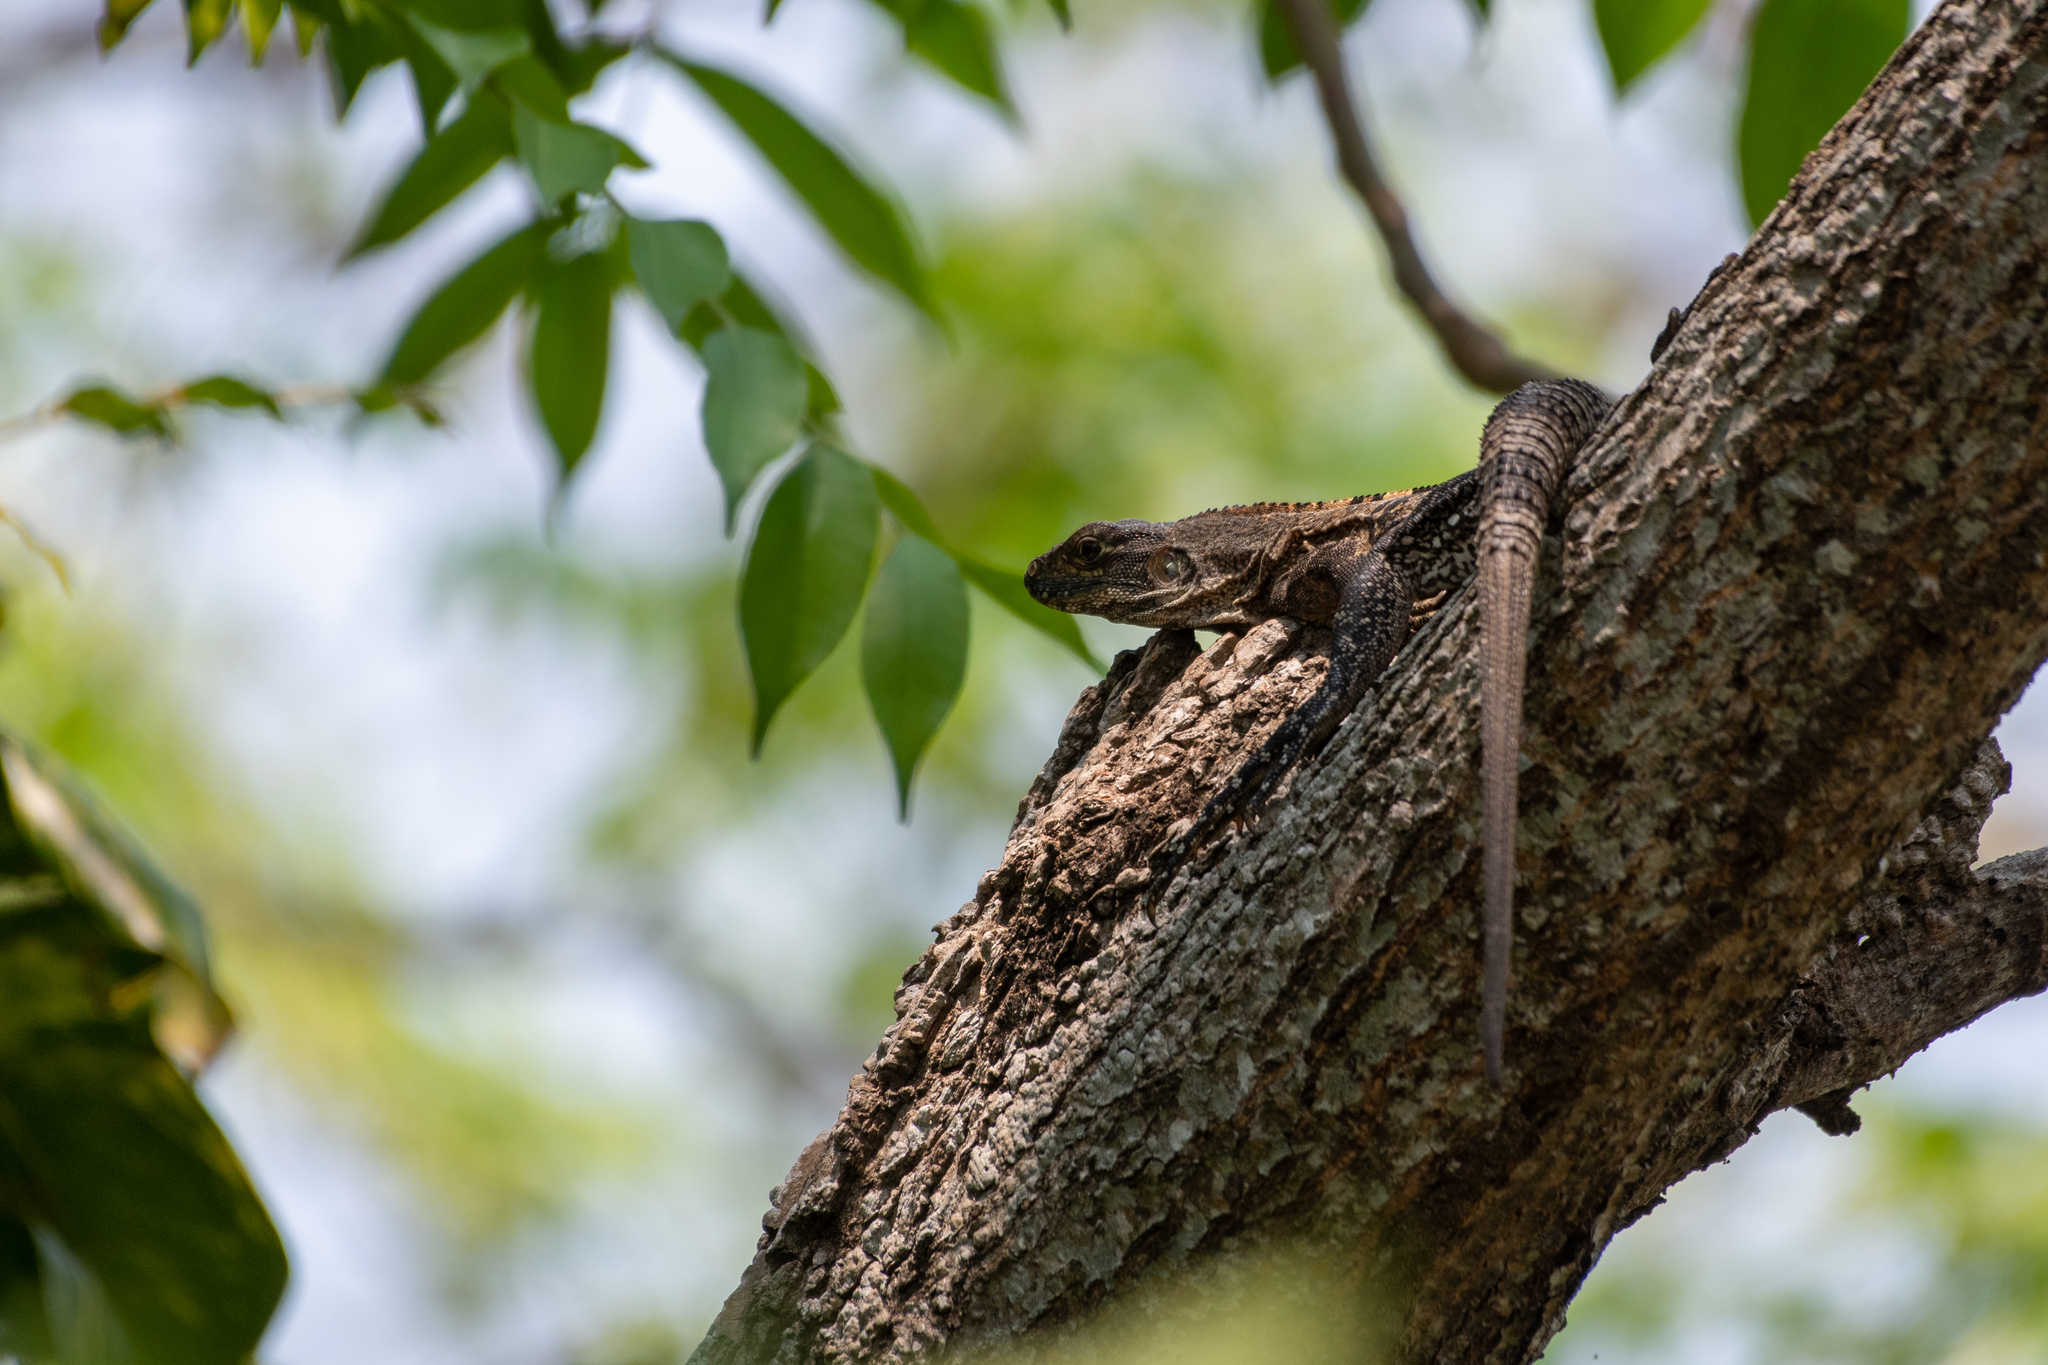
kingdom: Animalia
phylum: Chordata
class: Squamata
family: Iguanidae
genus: Ctenosaura
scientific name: Ctenosaura similis
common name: Black spiny-tailed iguana
